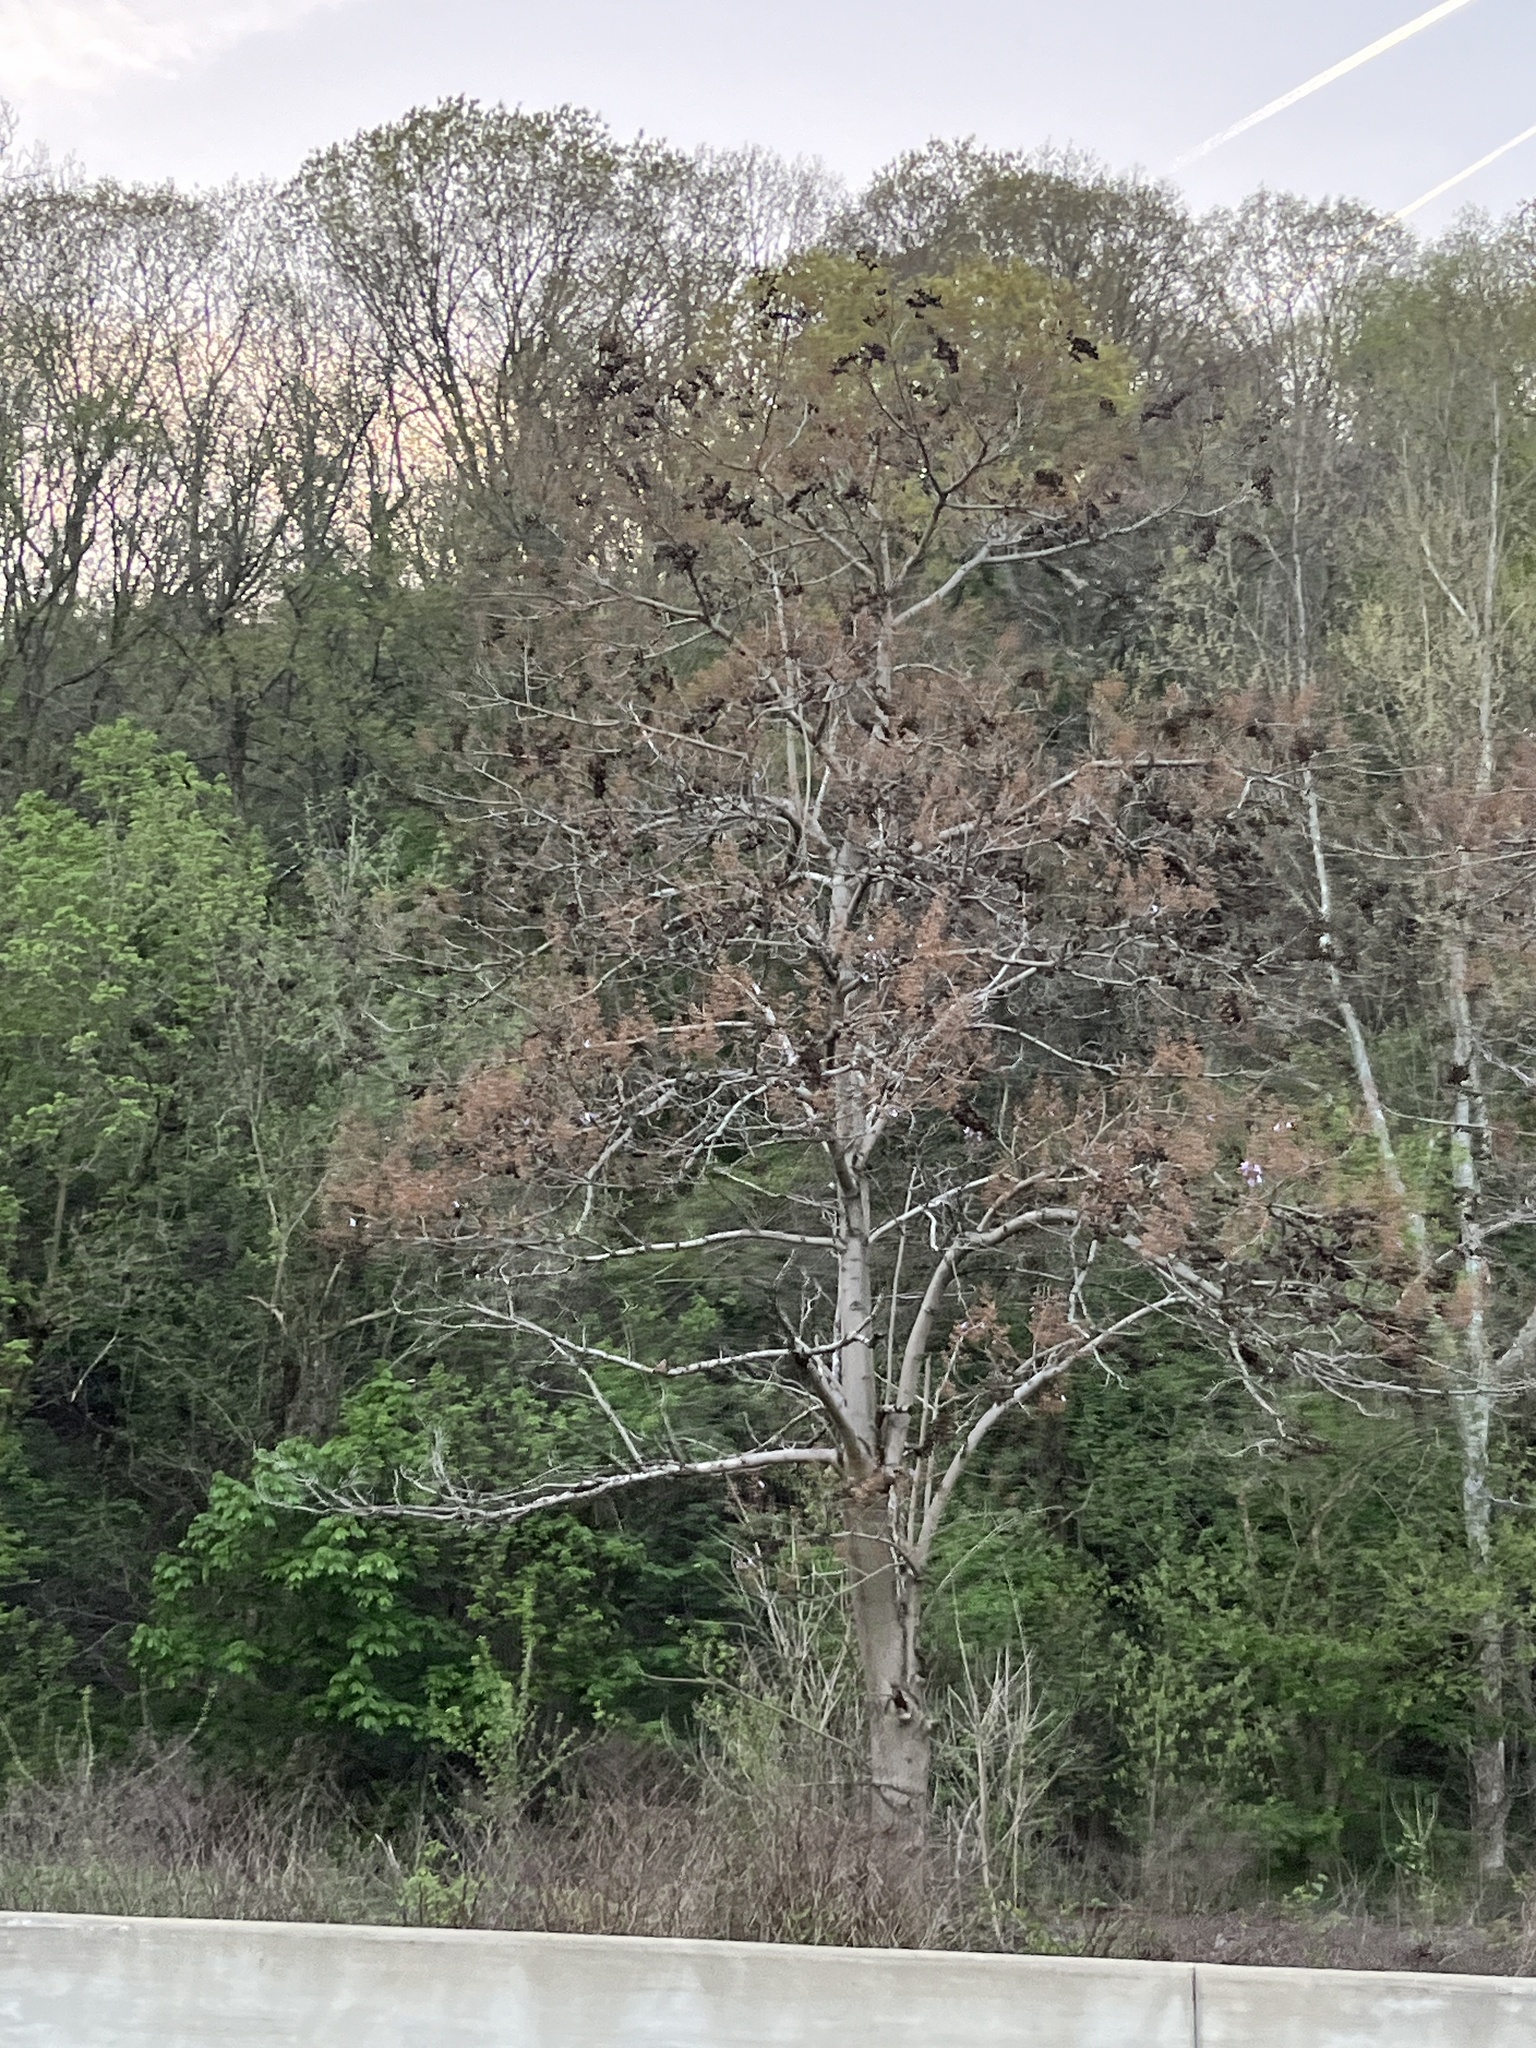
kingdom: Plantae
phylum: Tracheophyta
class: Magnoliopsida
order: Lamiales
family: Paulowniaceae
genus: Paulownia
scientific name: Paulownia tomentosa
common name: Foxglove-tree
